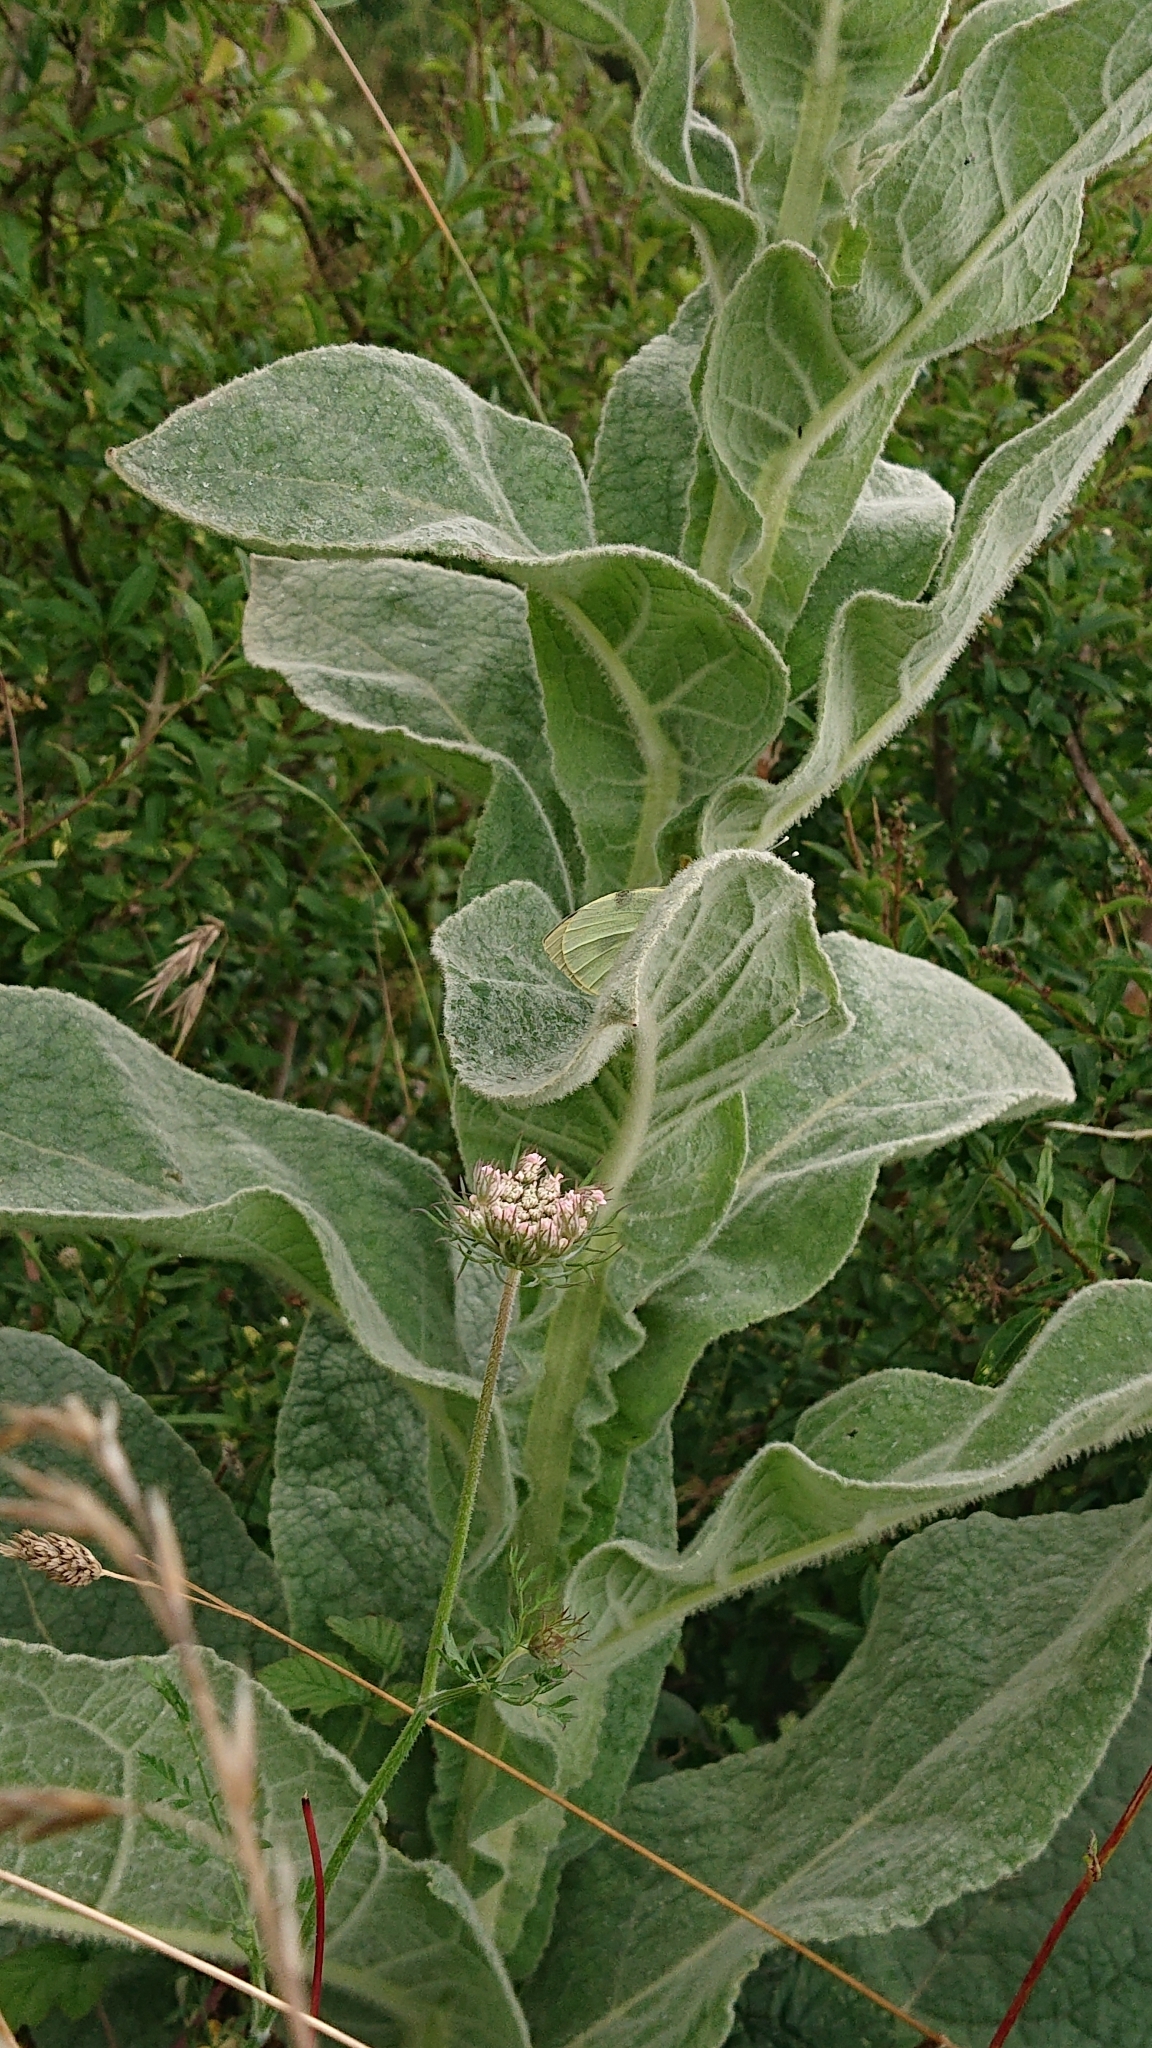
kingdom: Animalia
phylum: Arthropoda
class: Insecta
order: Lepidoptera
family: Pieridae
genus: Pieris
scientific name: Pieris brassicae
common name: Large white
